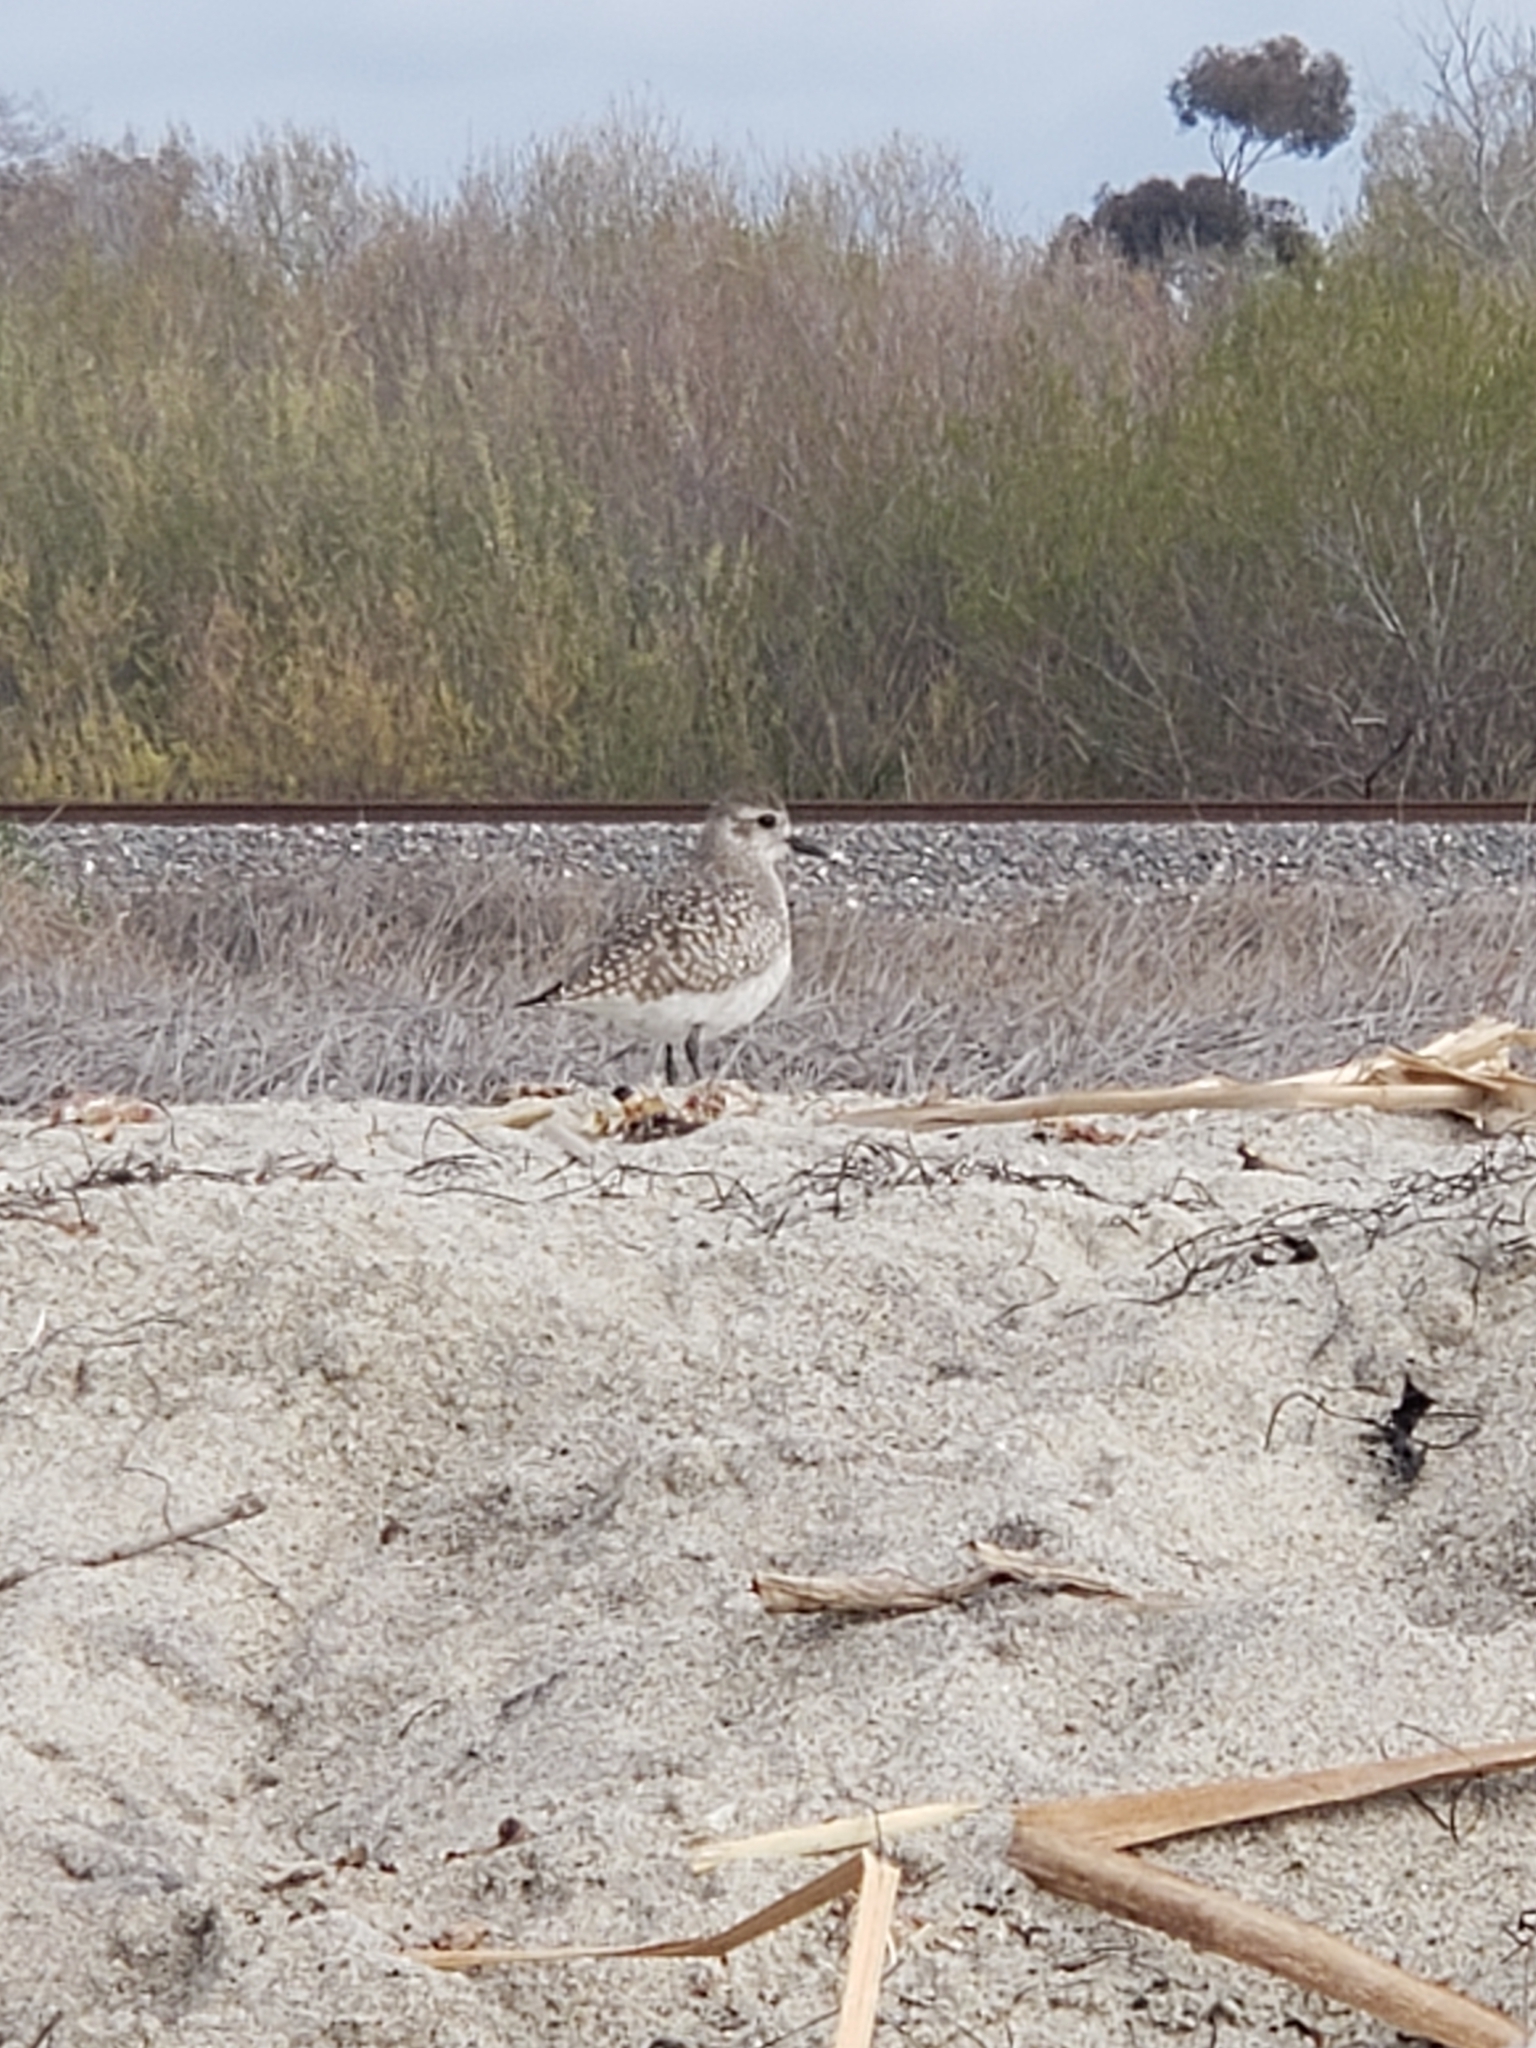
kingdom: Animalia
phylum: Chordata
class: Aves
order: Charadriiformes
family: Charadriidae
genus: Pluvialis
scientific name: Pluvialis squatarola
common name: Grey plover
